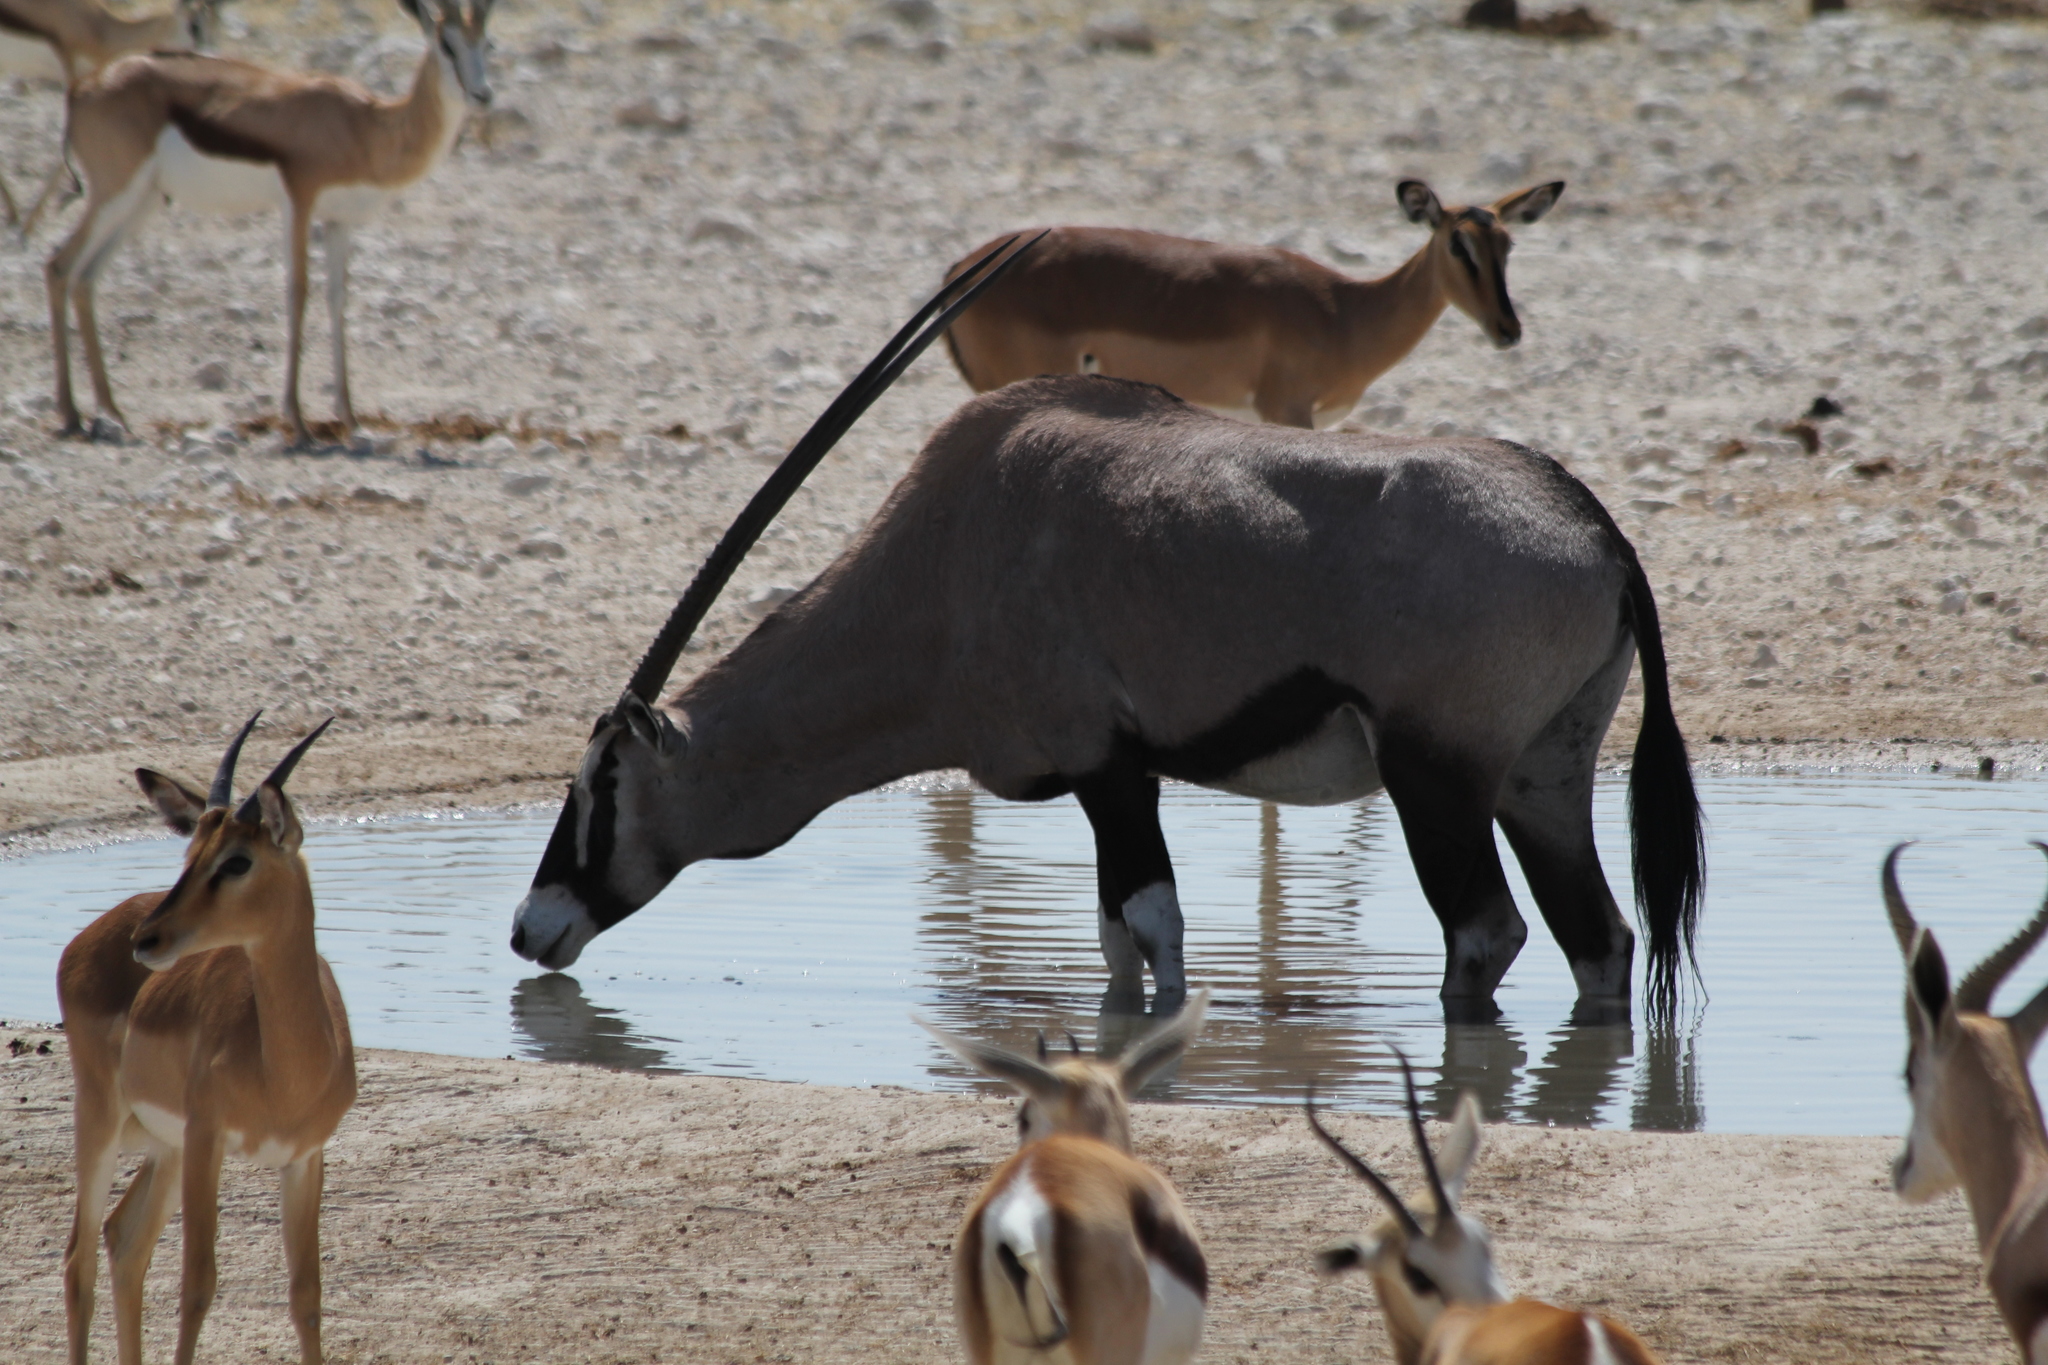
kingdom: Animalia
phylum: Chordata
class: Mammalia
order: Artiodactyla
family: Bovidae
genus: Oryx
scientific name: Oryx gazella
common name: Gemsbok
